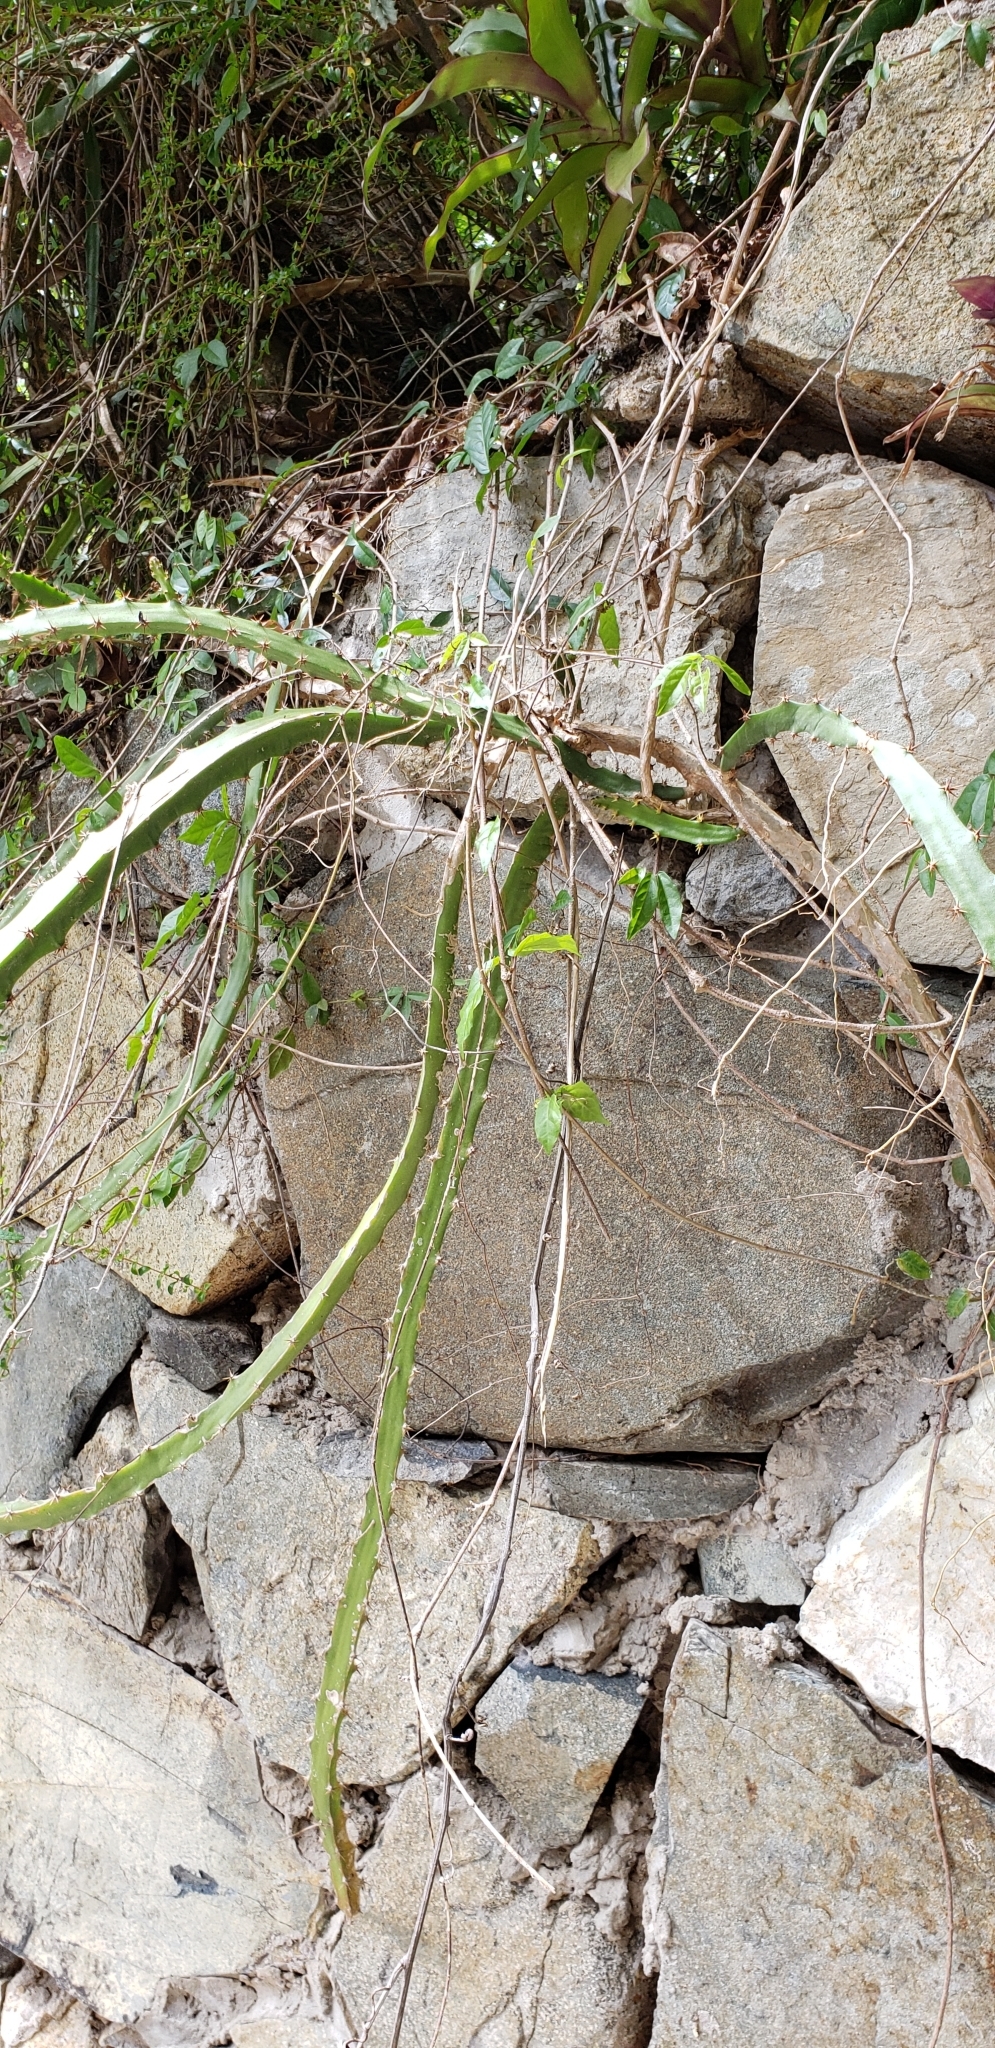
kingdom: Plantae
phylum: Tracheophyta
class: Magnoliopsida
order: Caryophyllales
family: Cactaceae
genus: Selenicereus
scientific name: Selenicereus triangularis
